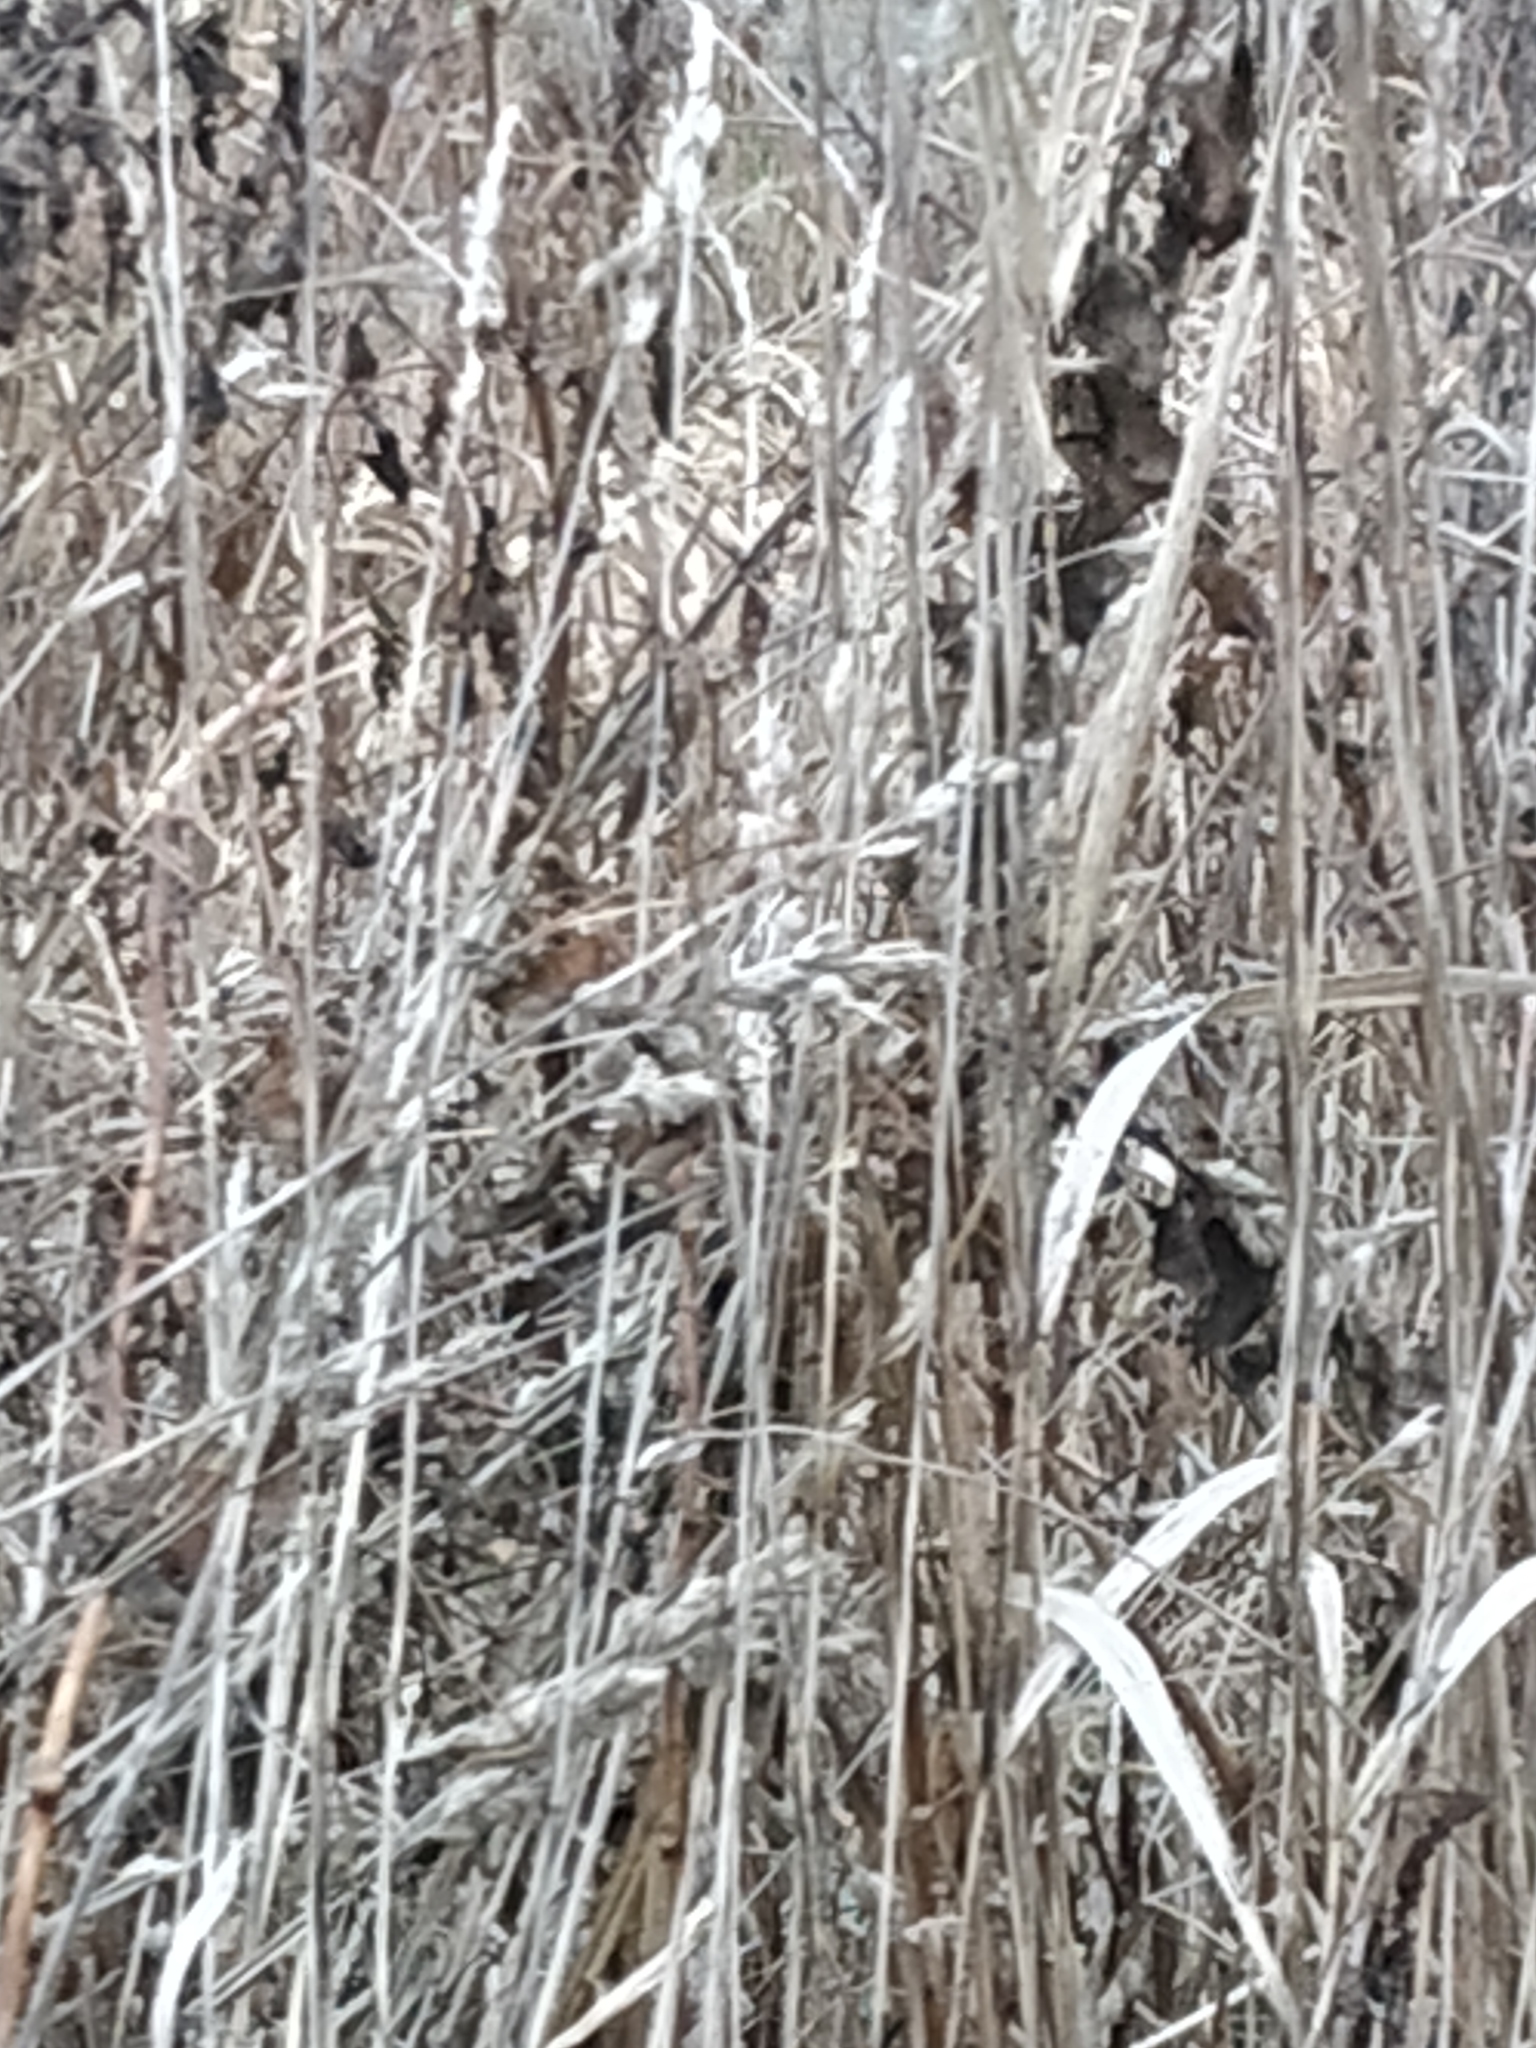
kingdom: Plantae
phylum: Tracheophyta
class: Liliopsida
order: Poales
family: Poaceae
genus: Dactylis
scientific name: Dactylis glomerata
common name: Orchardgrass
